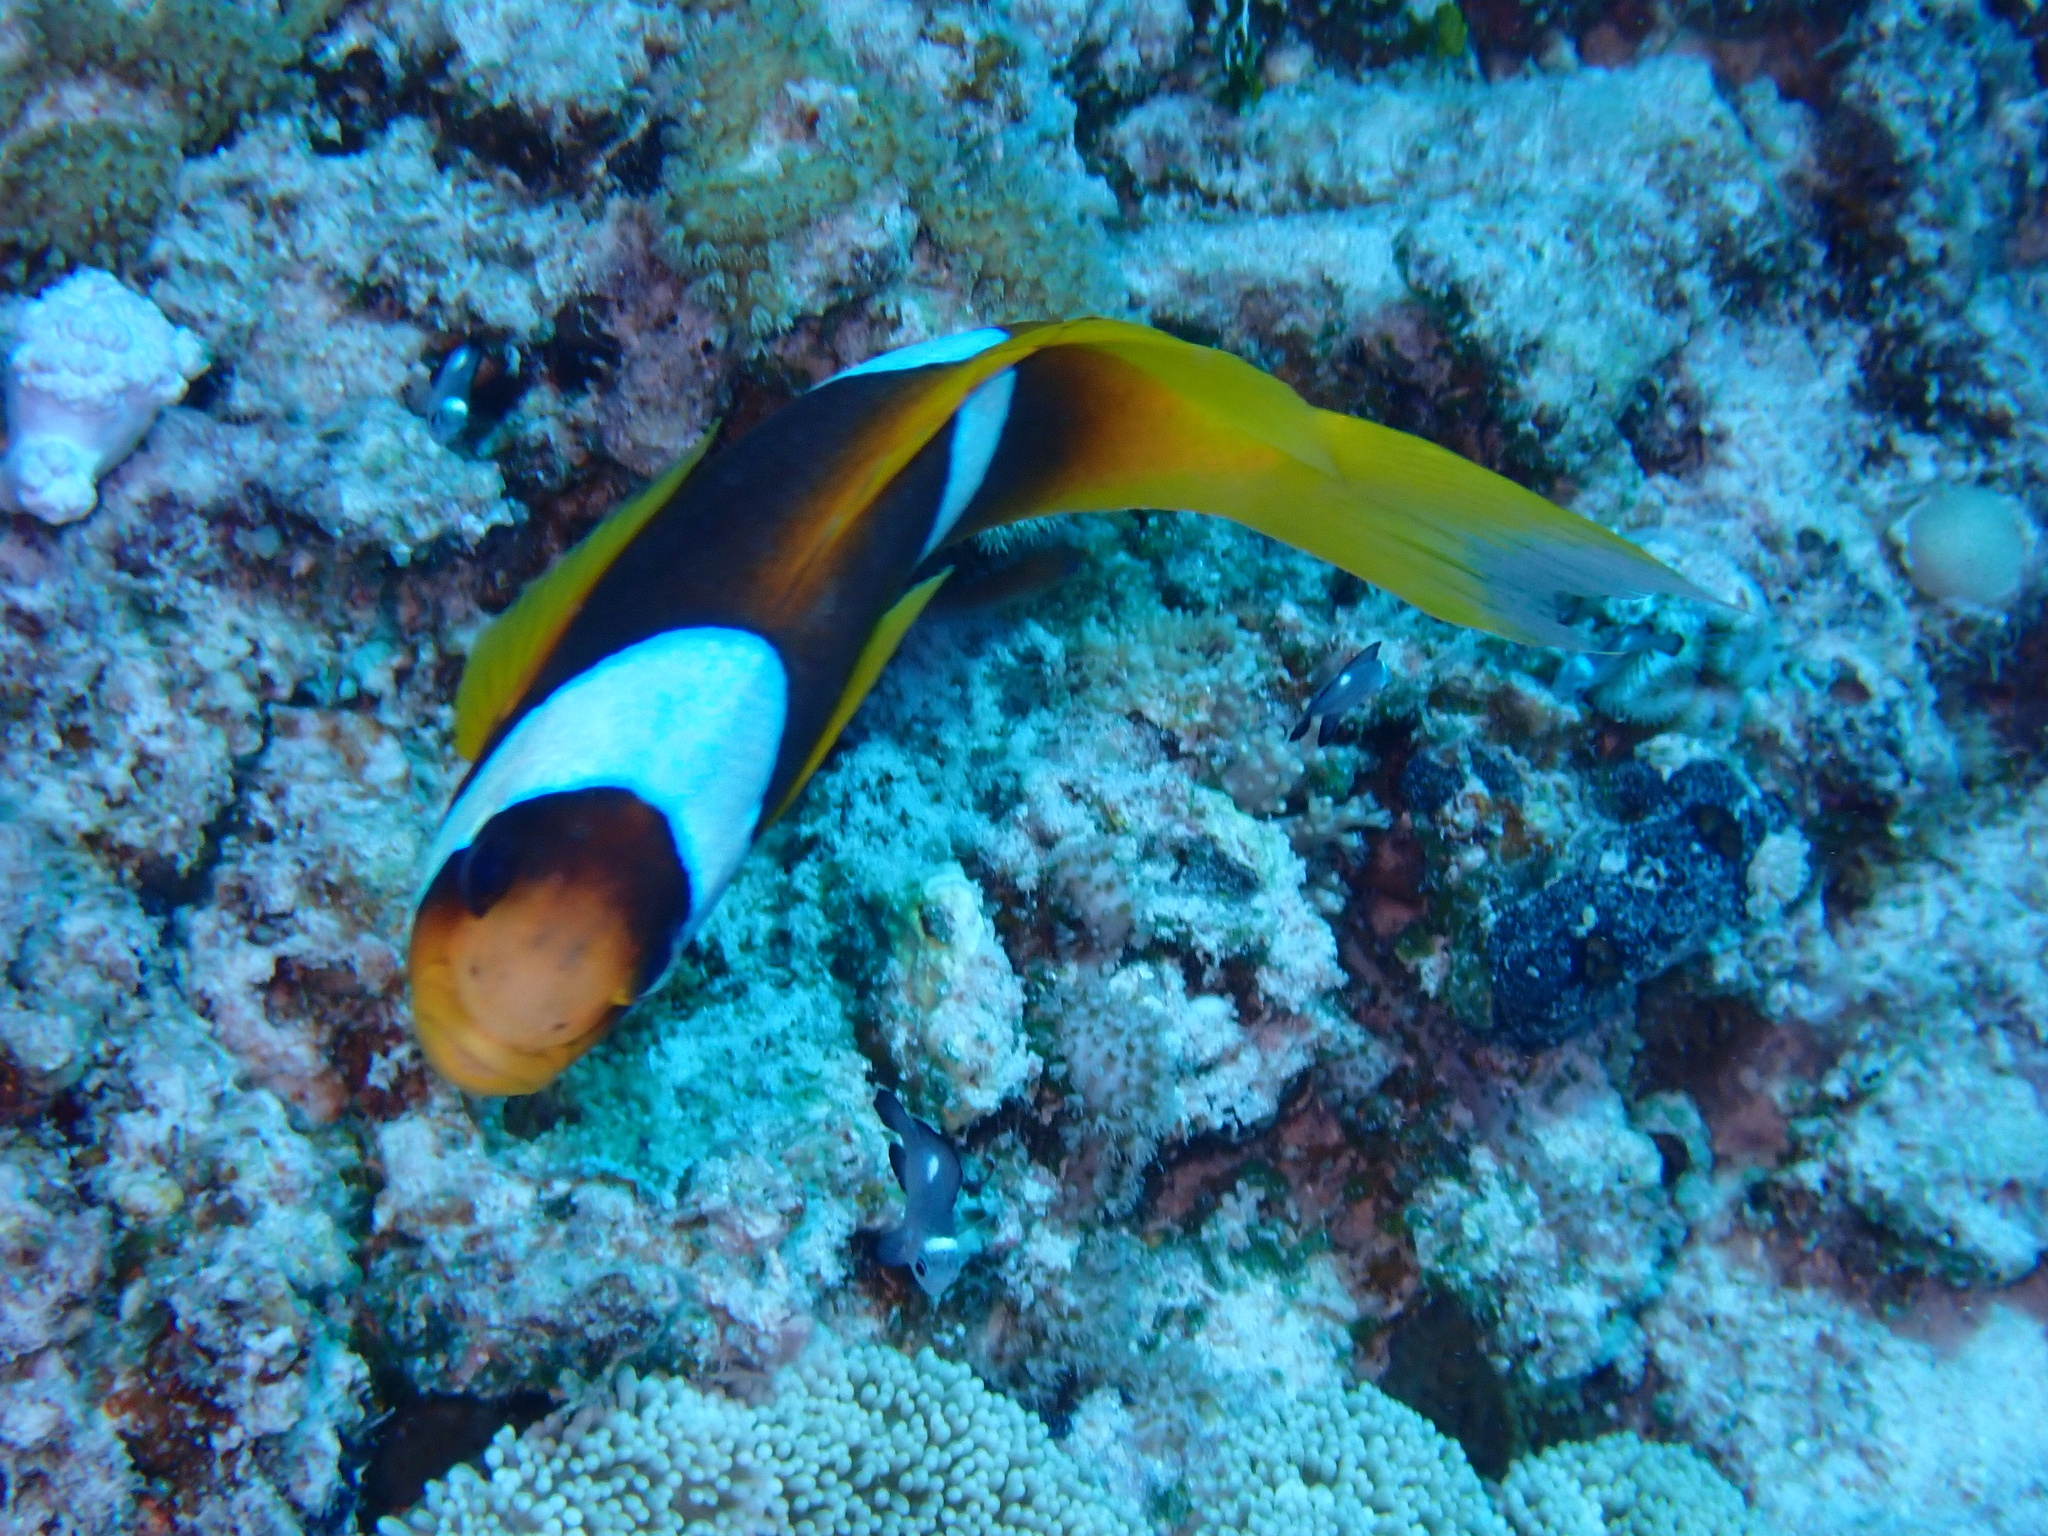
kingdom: Animalia
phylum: Chordata
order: Perciformes
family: Pomacentridae
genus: Amphiprion
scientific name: Amphiprion bicinctus
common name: Two-banded anemonefish
